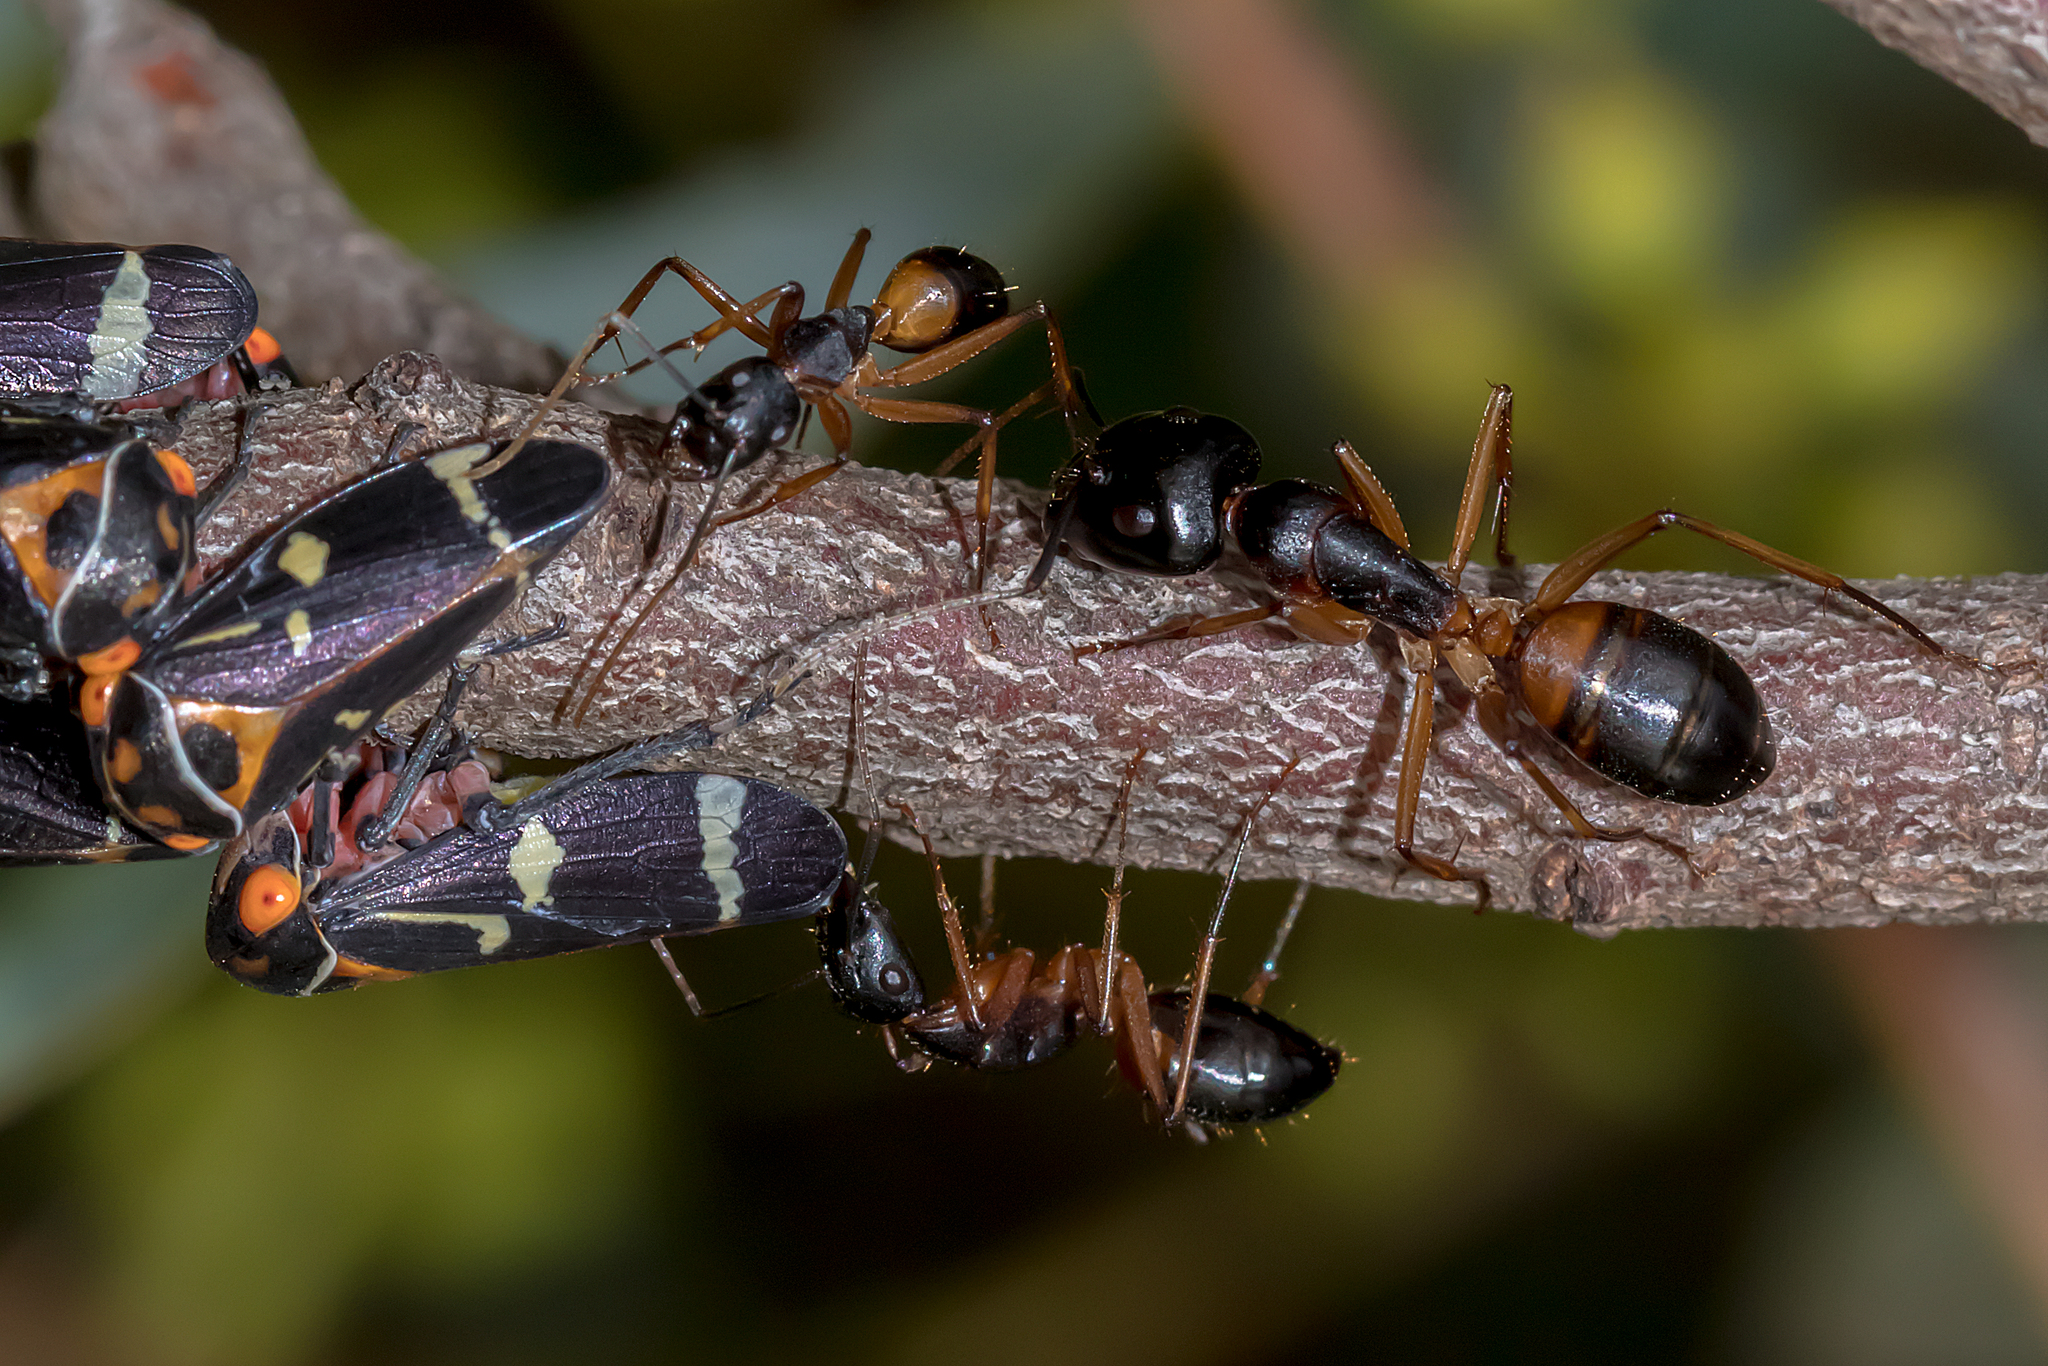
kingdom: Animalia
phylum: Arthropoda
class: Insecta
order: Hymenoptera
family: Formicidae
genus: Camponotus
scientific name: Camponotus consobrinus
